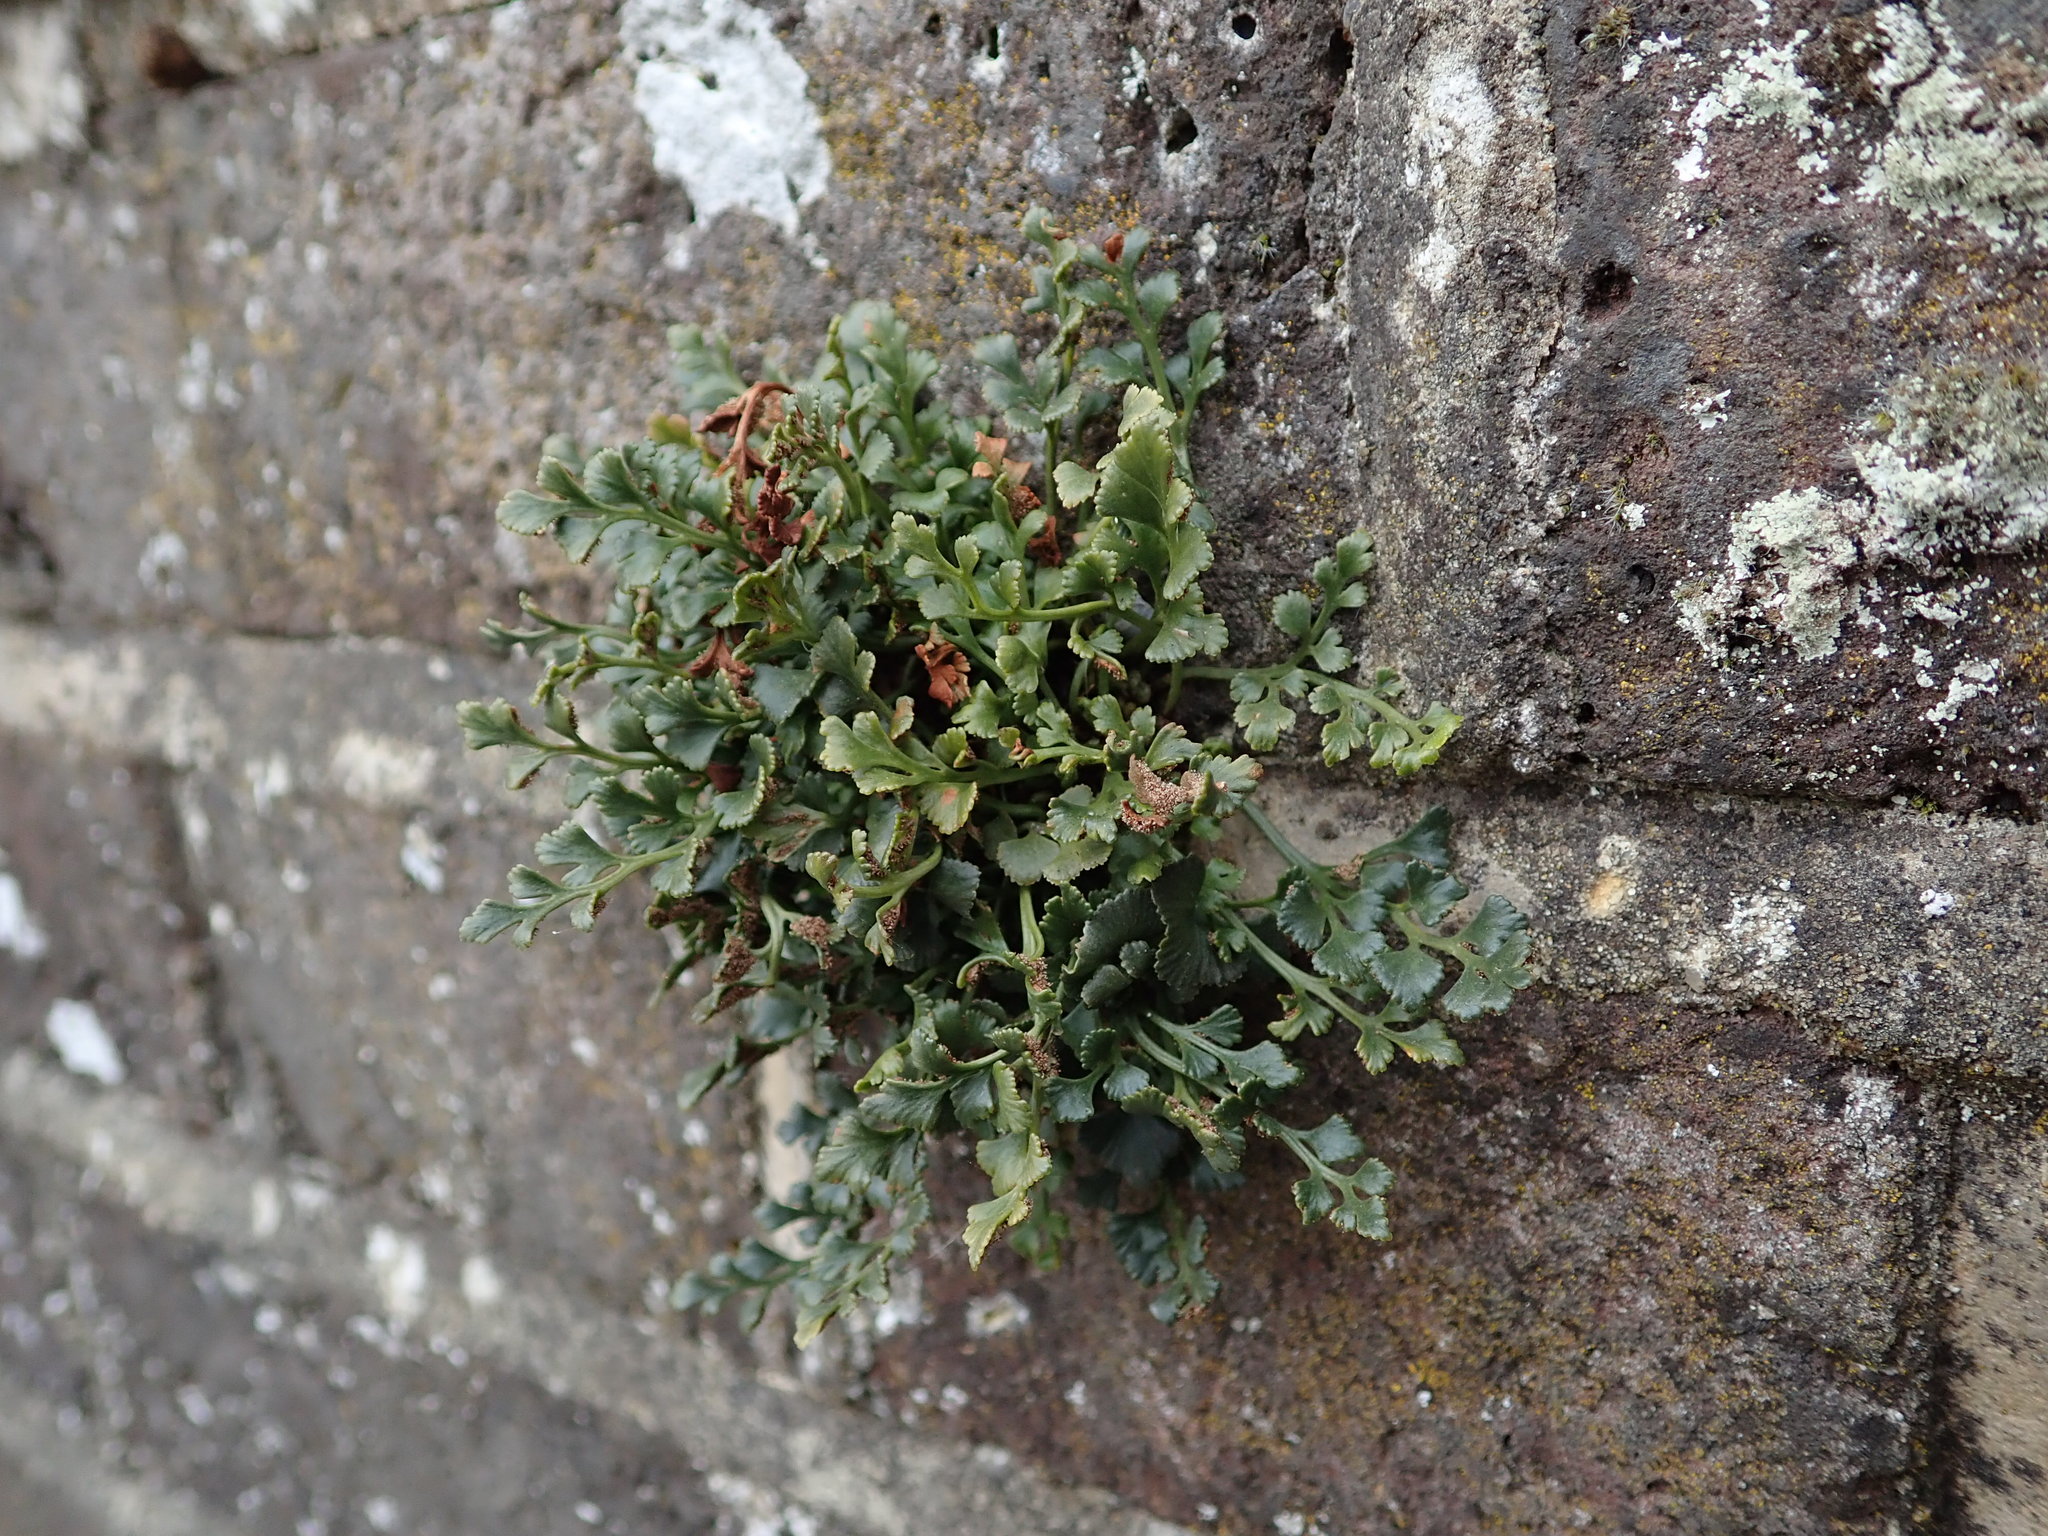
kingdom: Plantae
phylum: Tracheophyta
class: Polypodiopsida
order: Polypodiales
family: Aspleniaceae
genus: Asplenium
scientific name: Asplenium ruta-muraria
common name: Wall-rue
